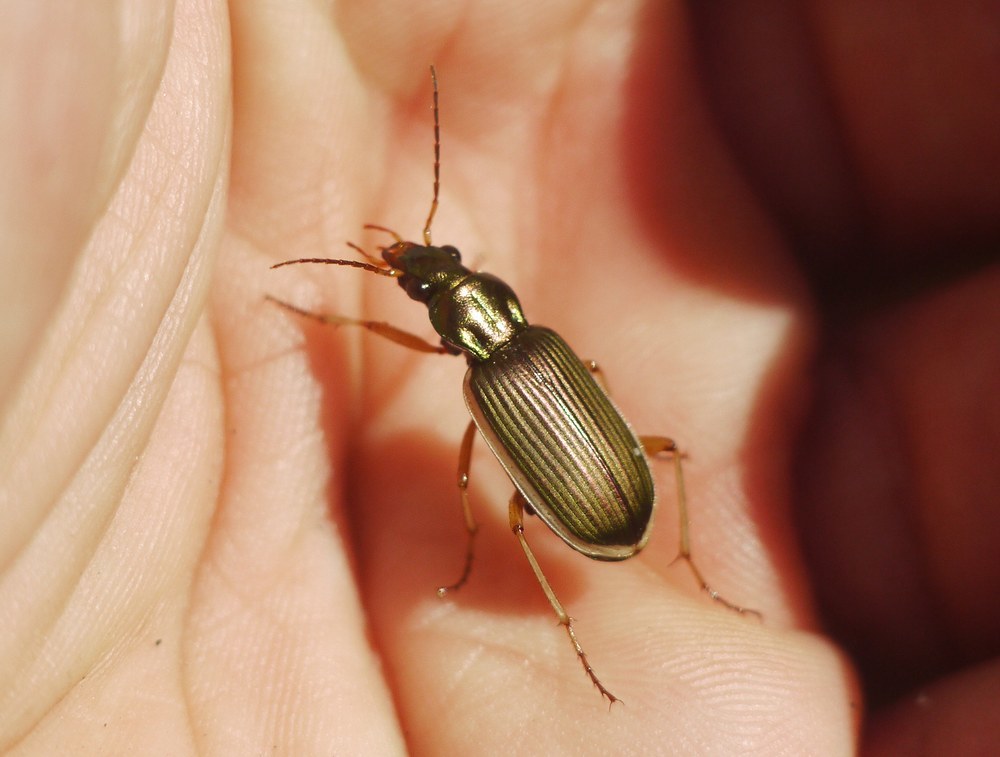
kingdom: Animalia
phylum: Arthropoda
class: Insecta
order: Coleoptera
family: Carabidae
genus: Chlaenius
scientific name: Chlaenius spoliatus
